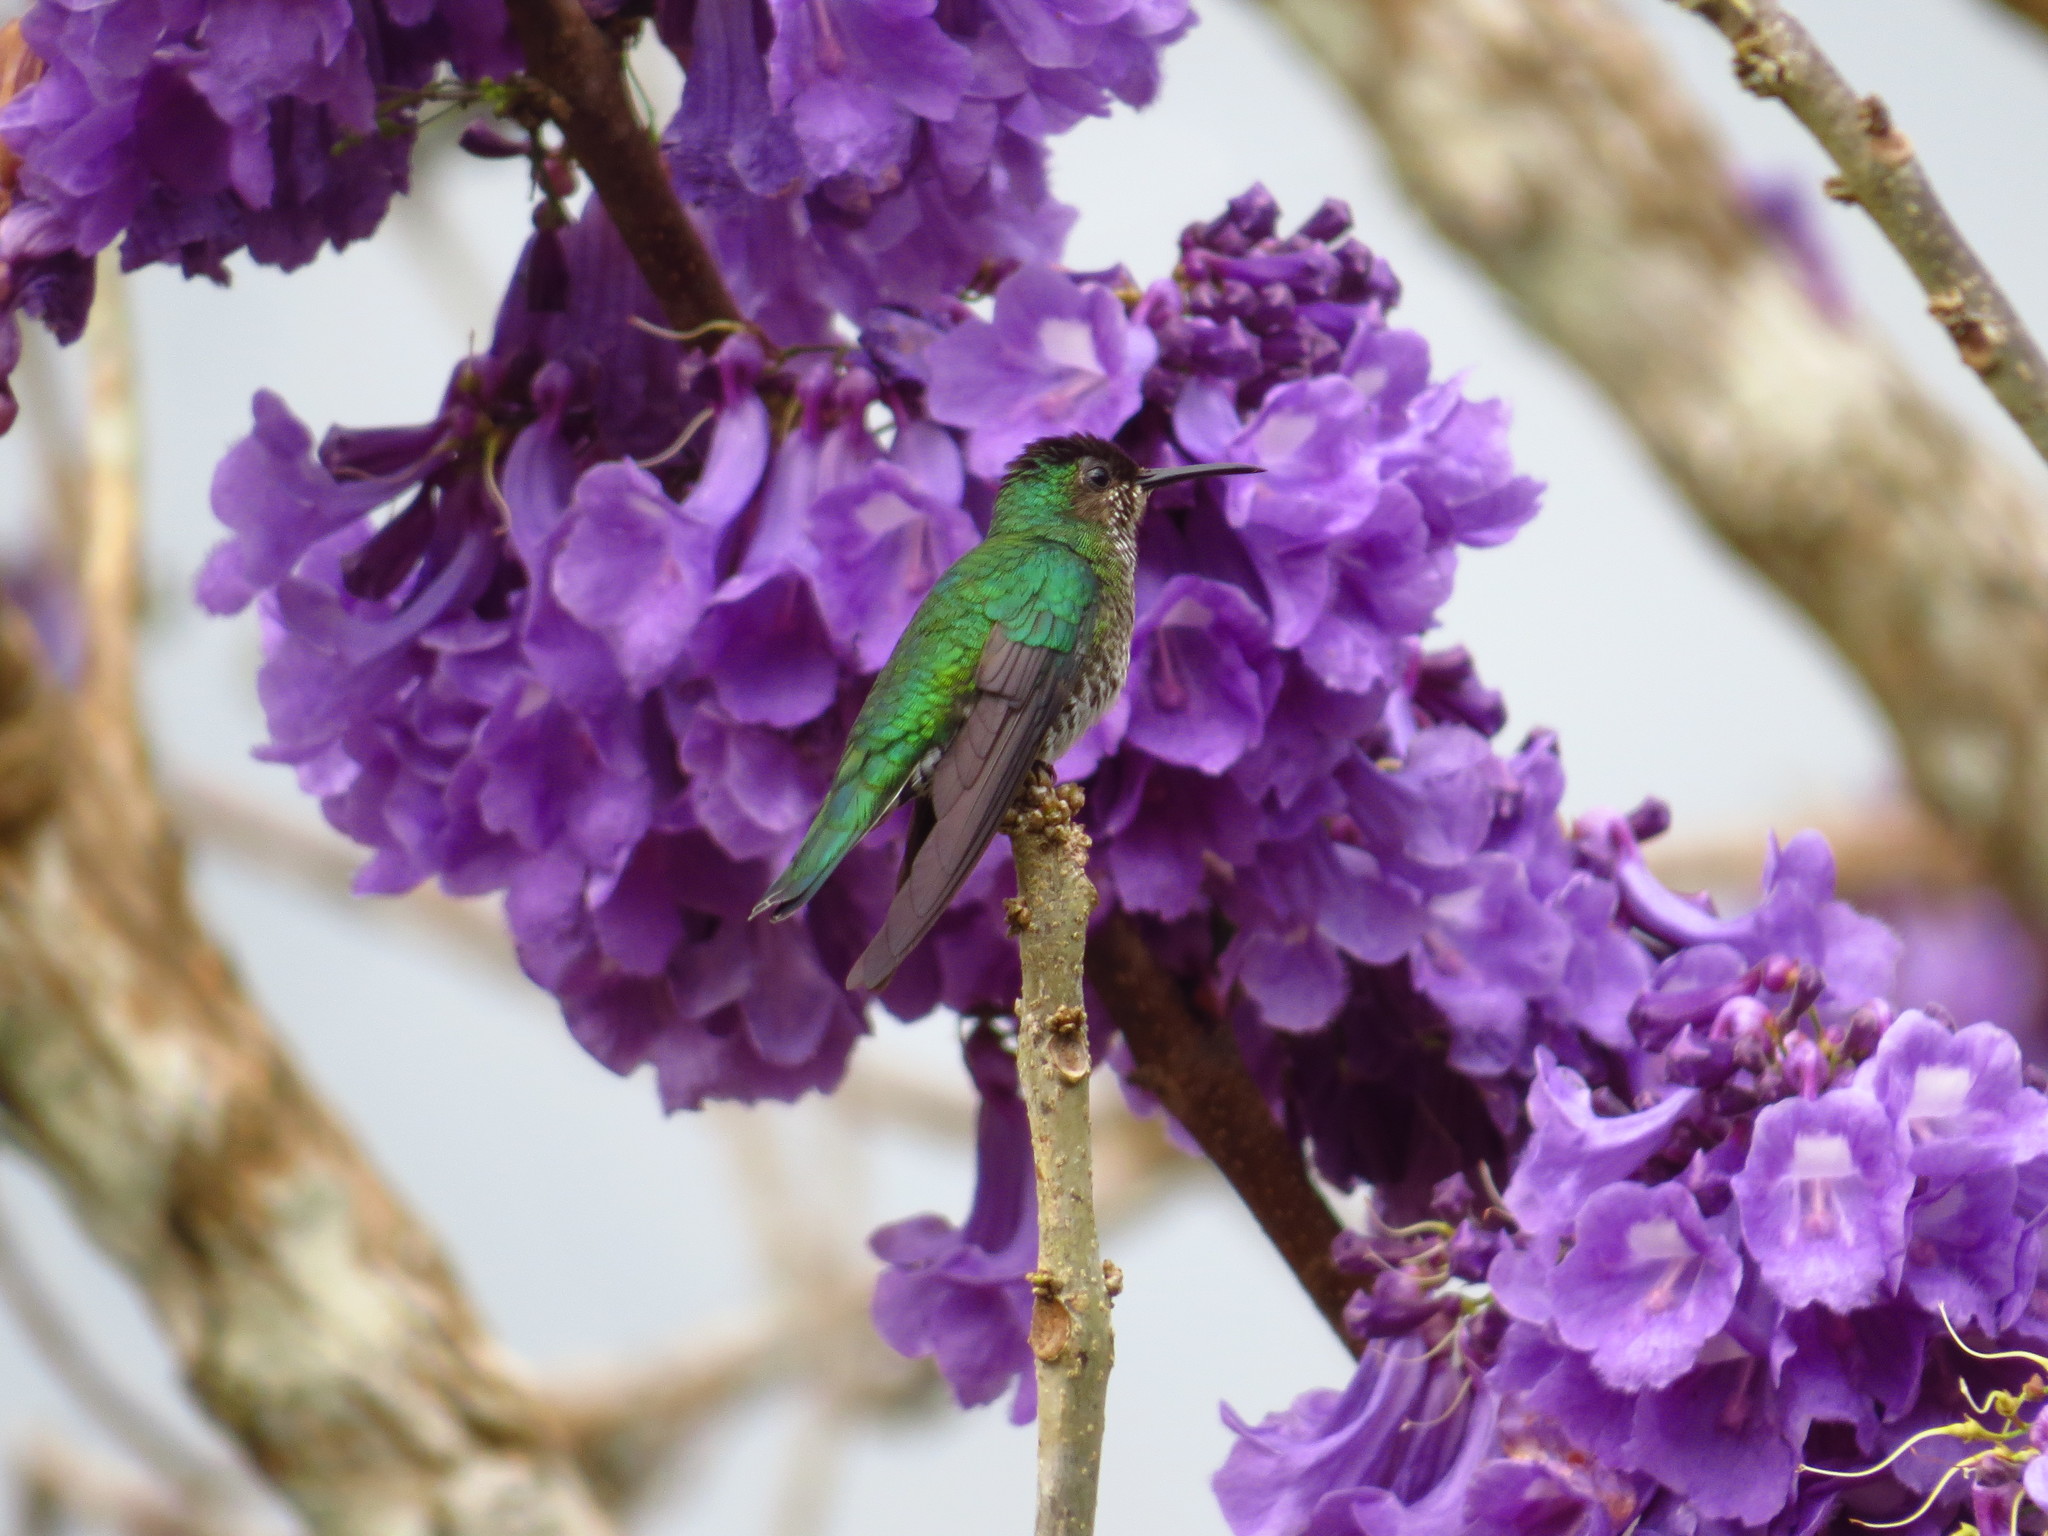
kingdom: Animalia
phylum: Chordata
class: Aves
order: Apodiformes
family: Trochilidae
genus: Florisuga
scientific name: Florisuga mellivora
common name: White-necked jacobin
